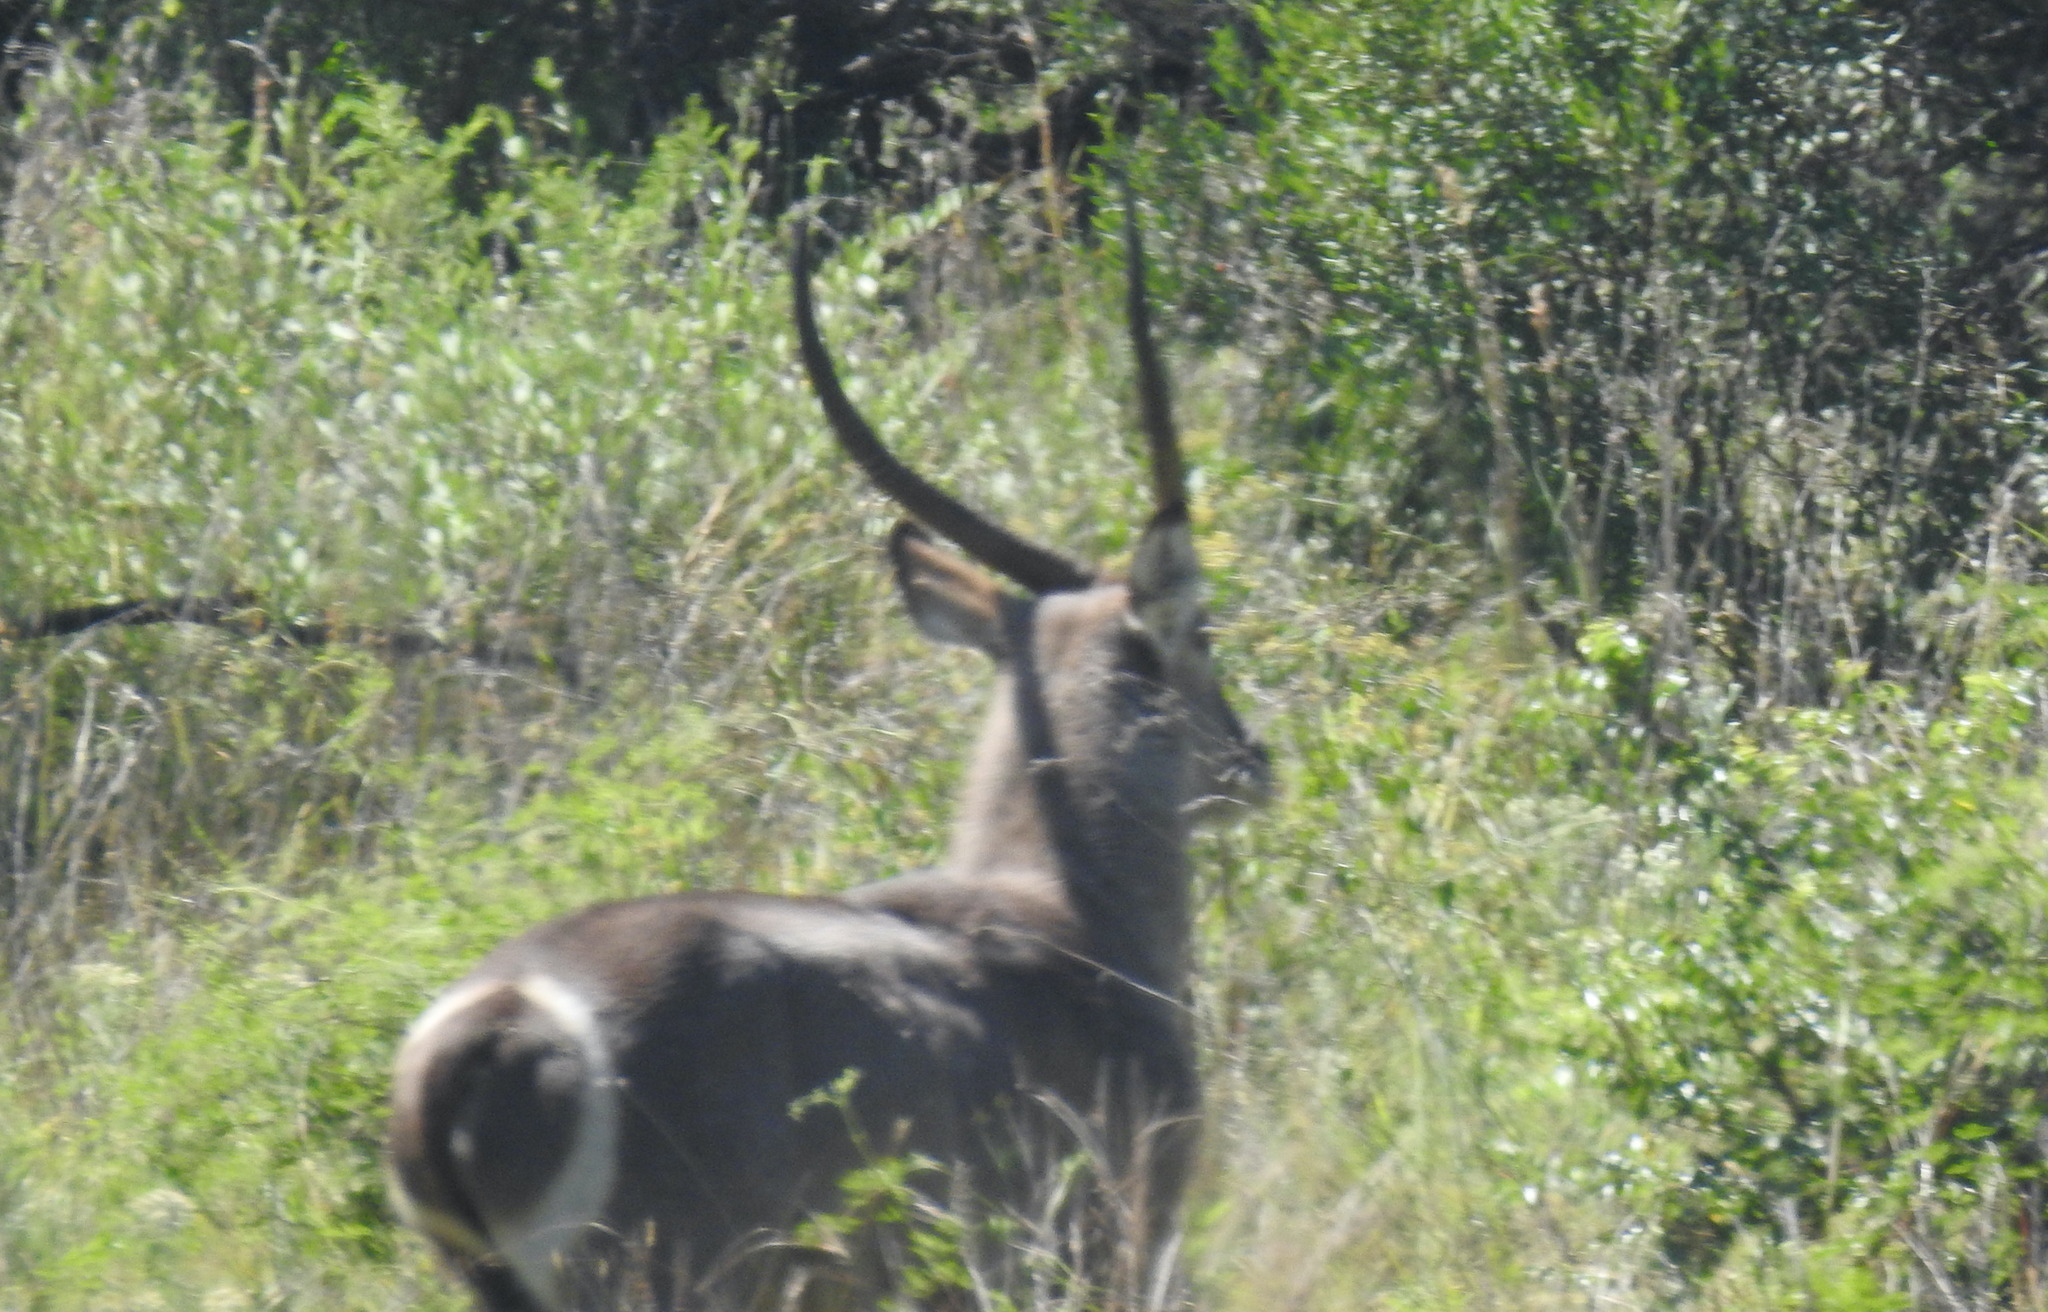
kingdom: Animalia
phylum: Chordata
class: Mammalia
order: Artiodactyla
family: Bovidae
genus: Kobus
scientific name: Kobus ellipsiprymnus
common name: Waterbuck
